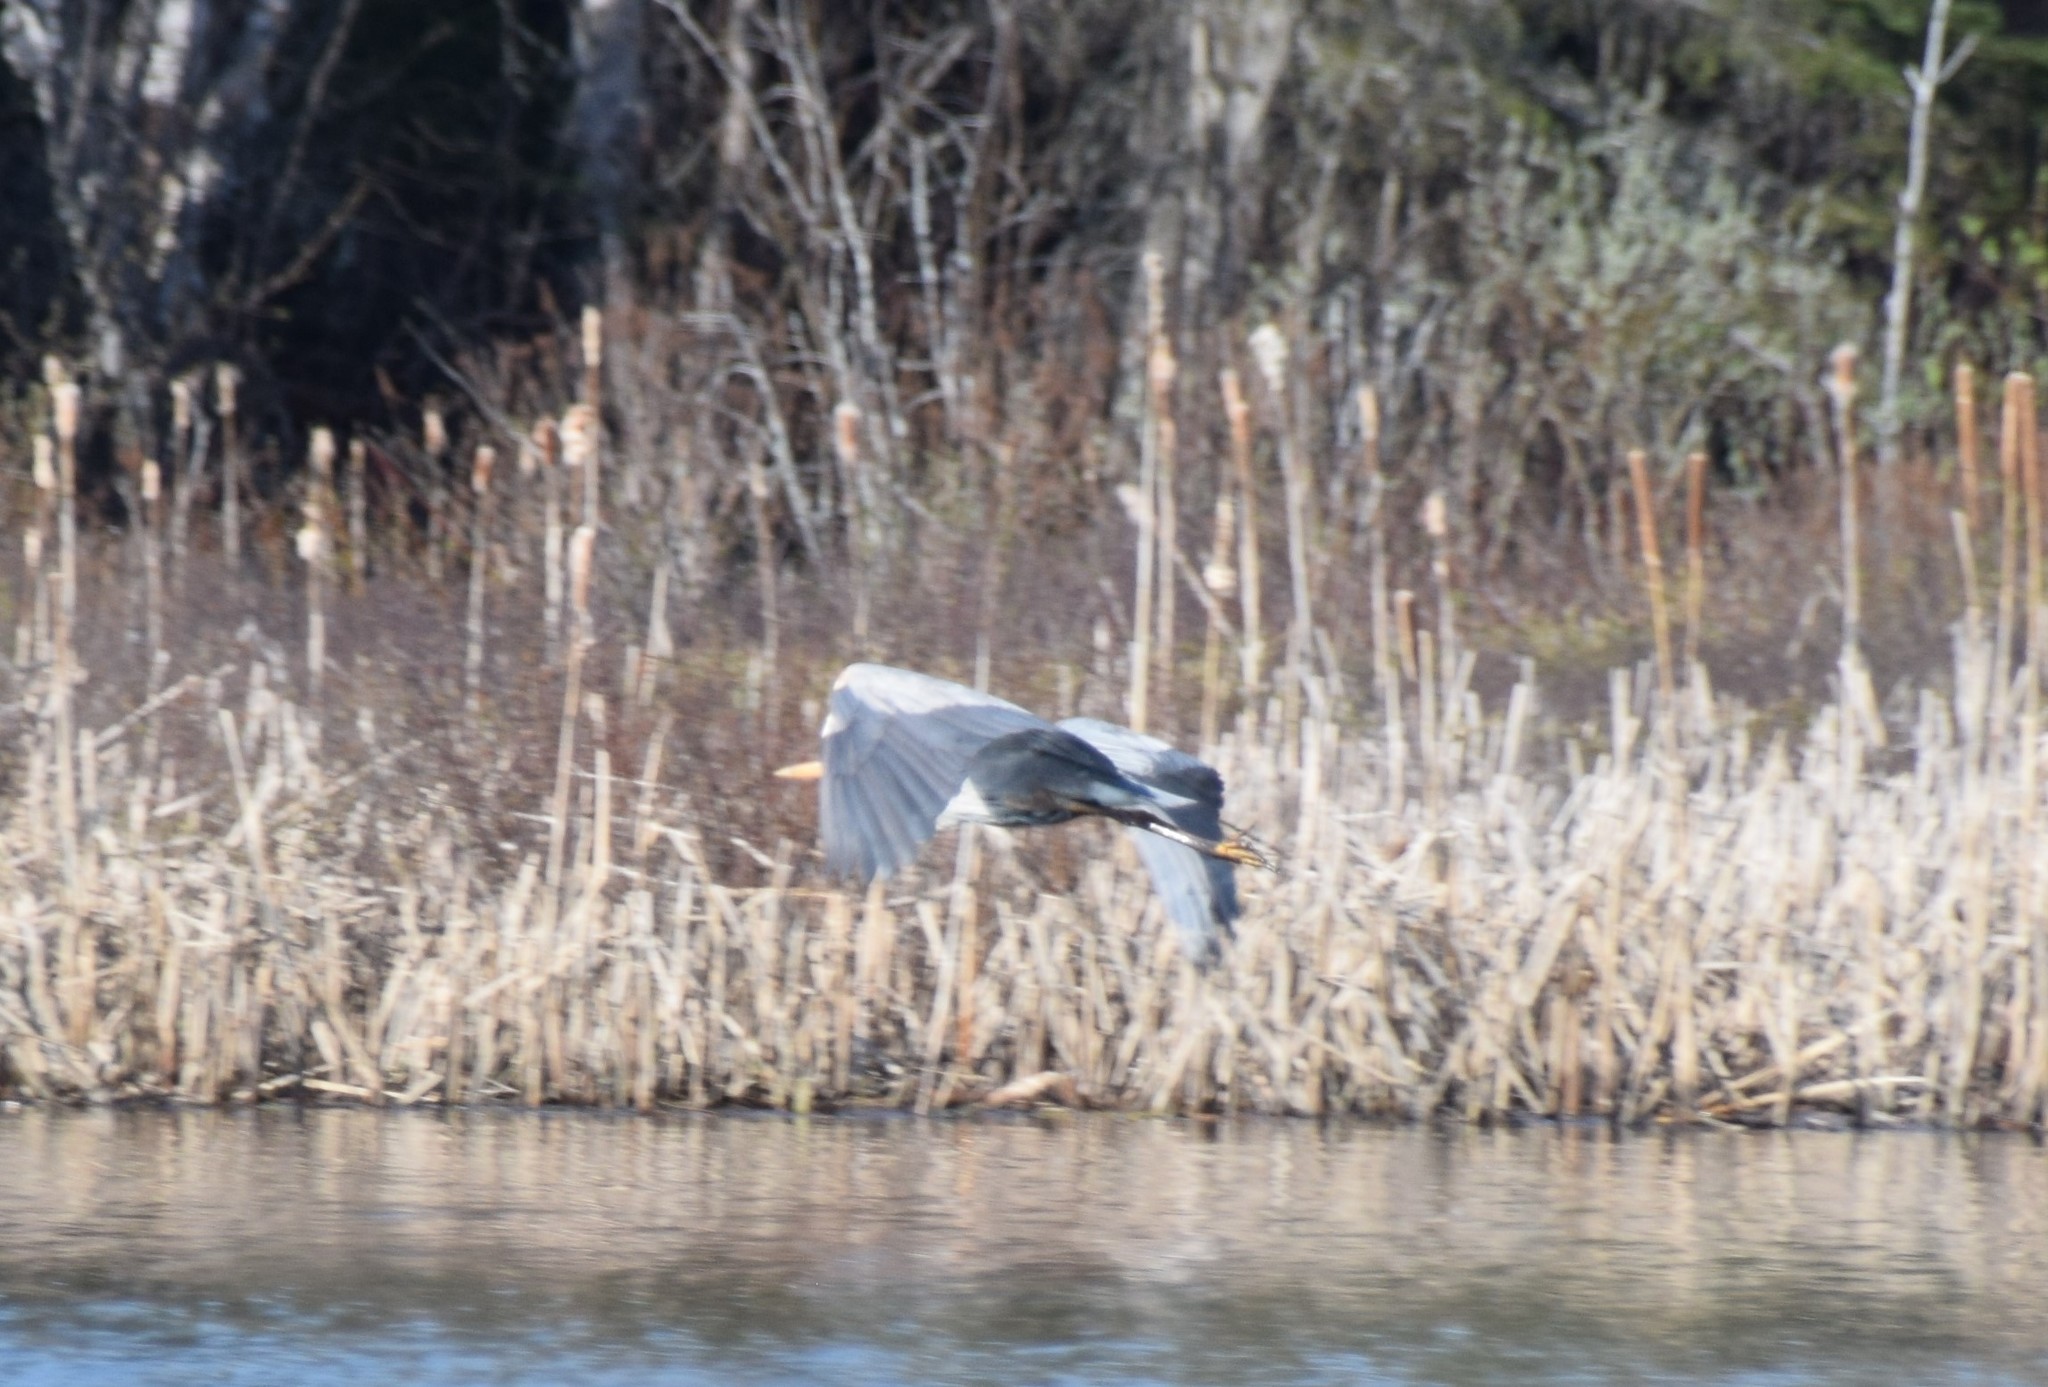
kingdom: Animalia
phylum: Chordata
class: Aves
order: Pelecaniformes
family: Ardeidae
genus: Ardea
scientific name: Ardea herodias
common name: Great blue heron
